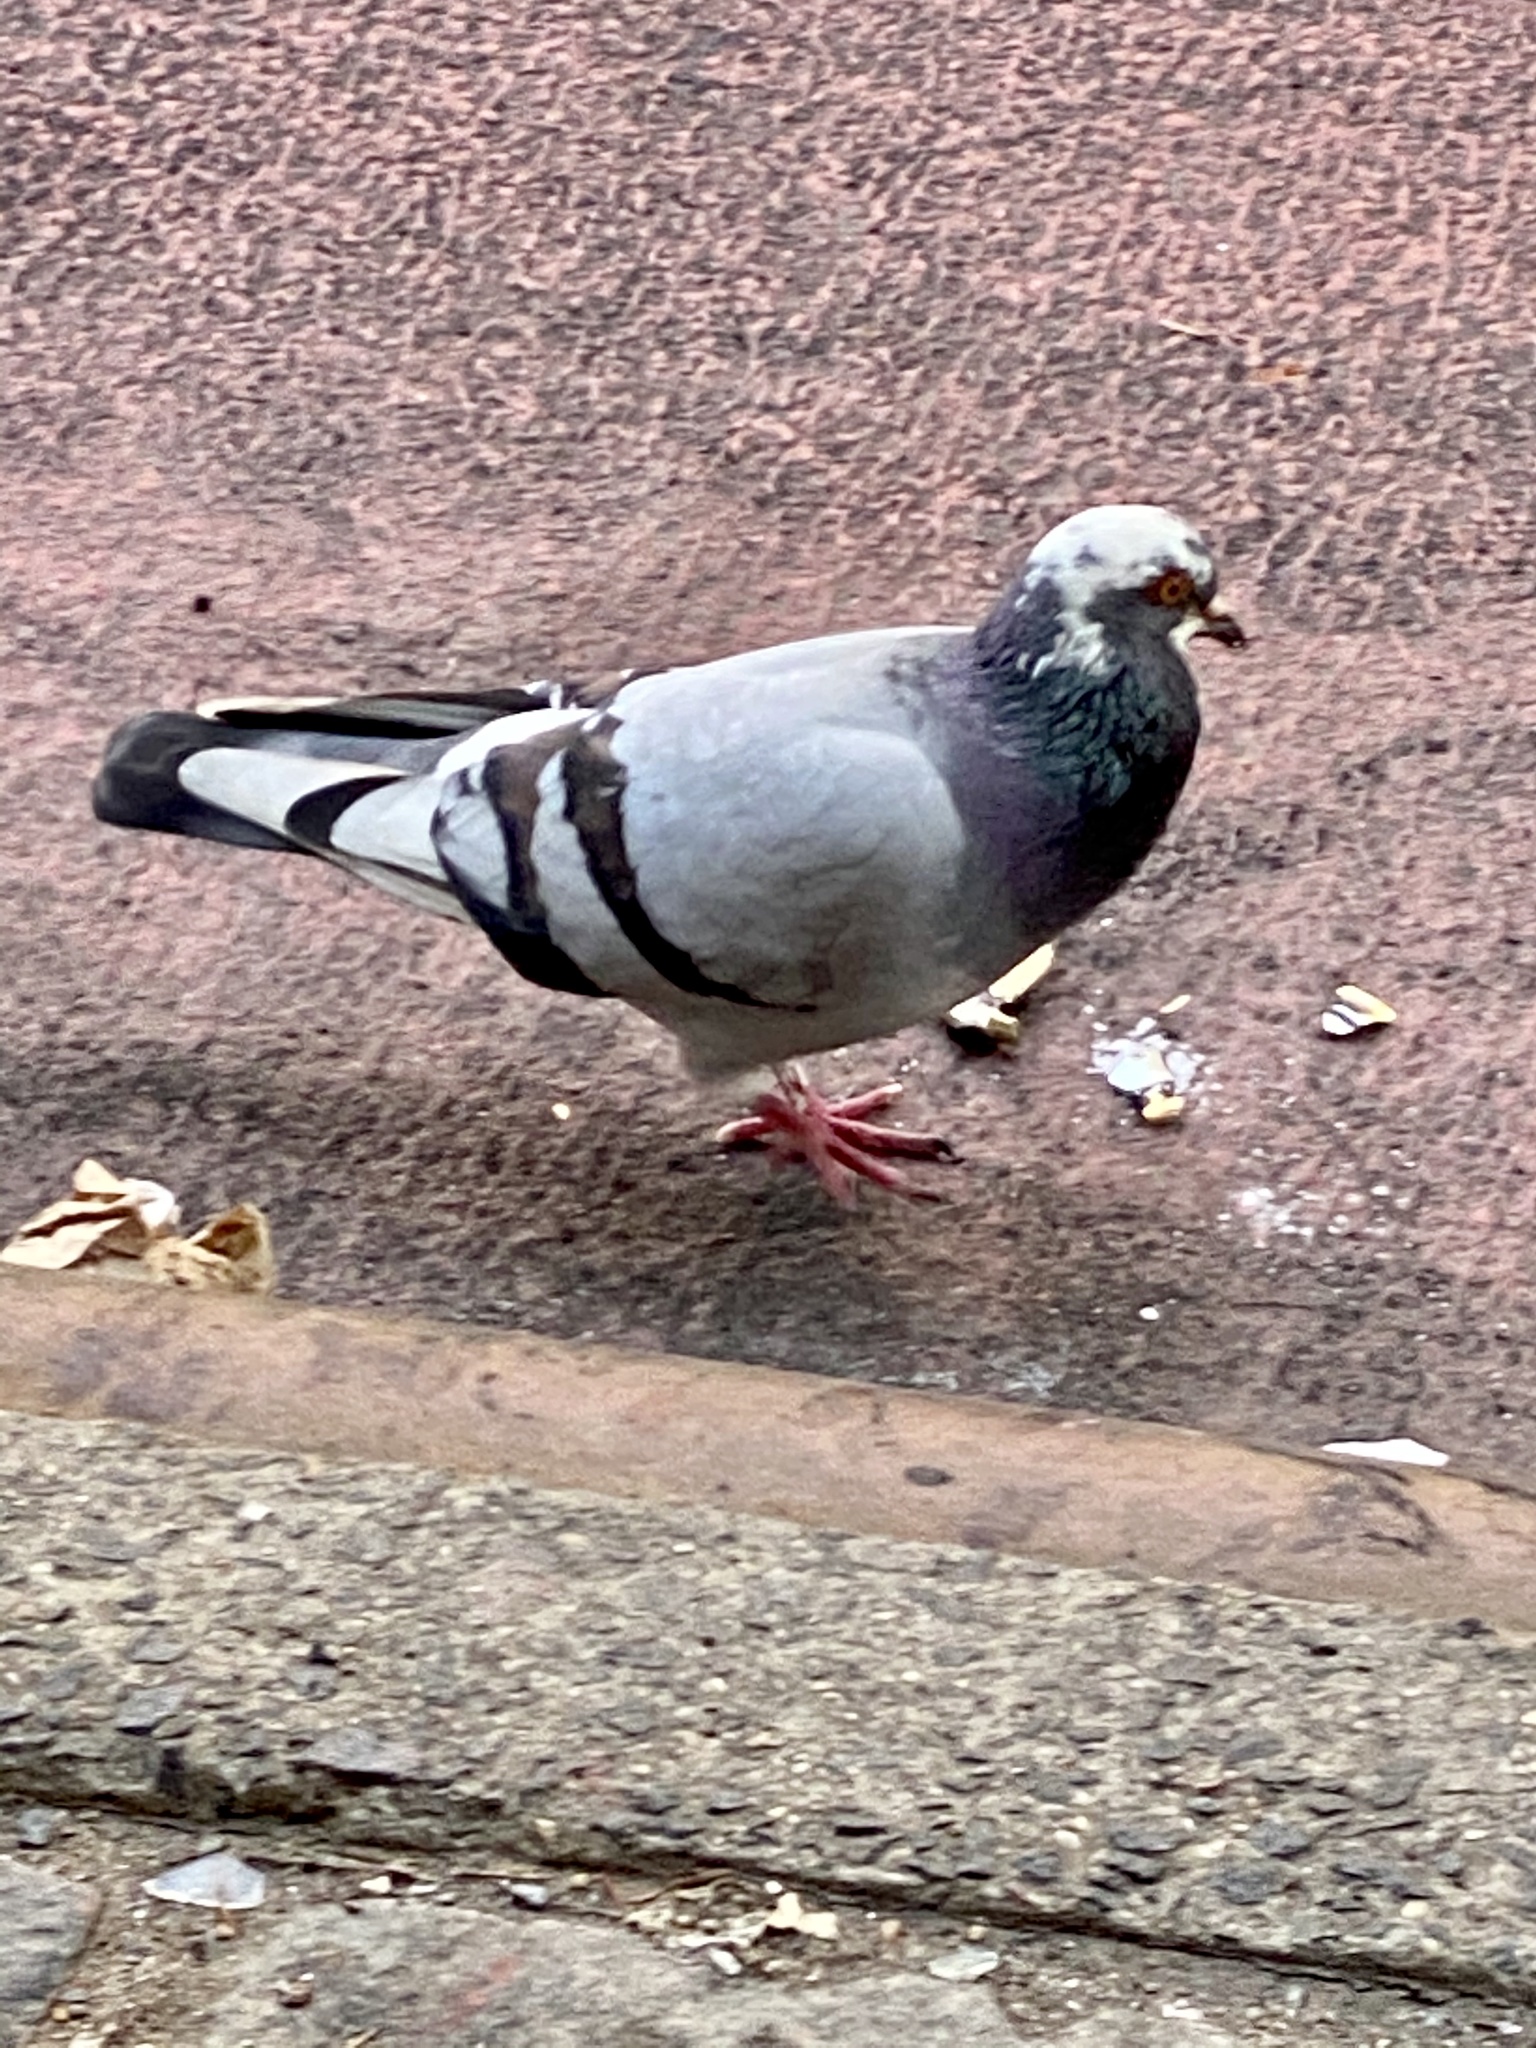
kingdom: Animalia
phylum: Chordata
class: Aves
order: Columbiformes
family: Columbidae
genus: Columba
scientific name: Columba livia
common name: Rock pigeon
